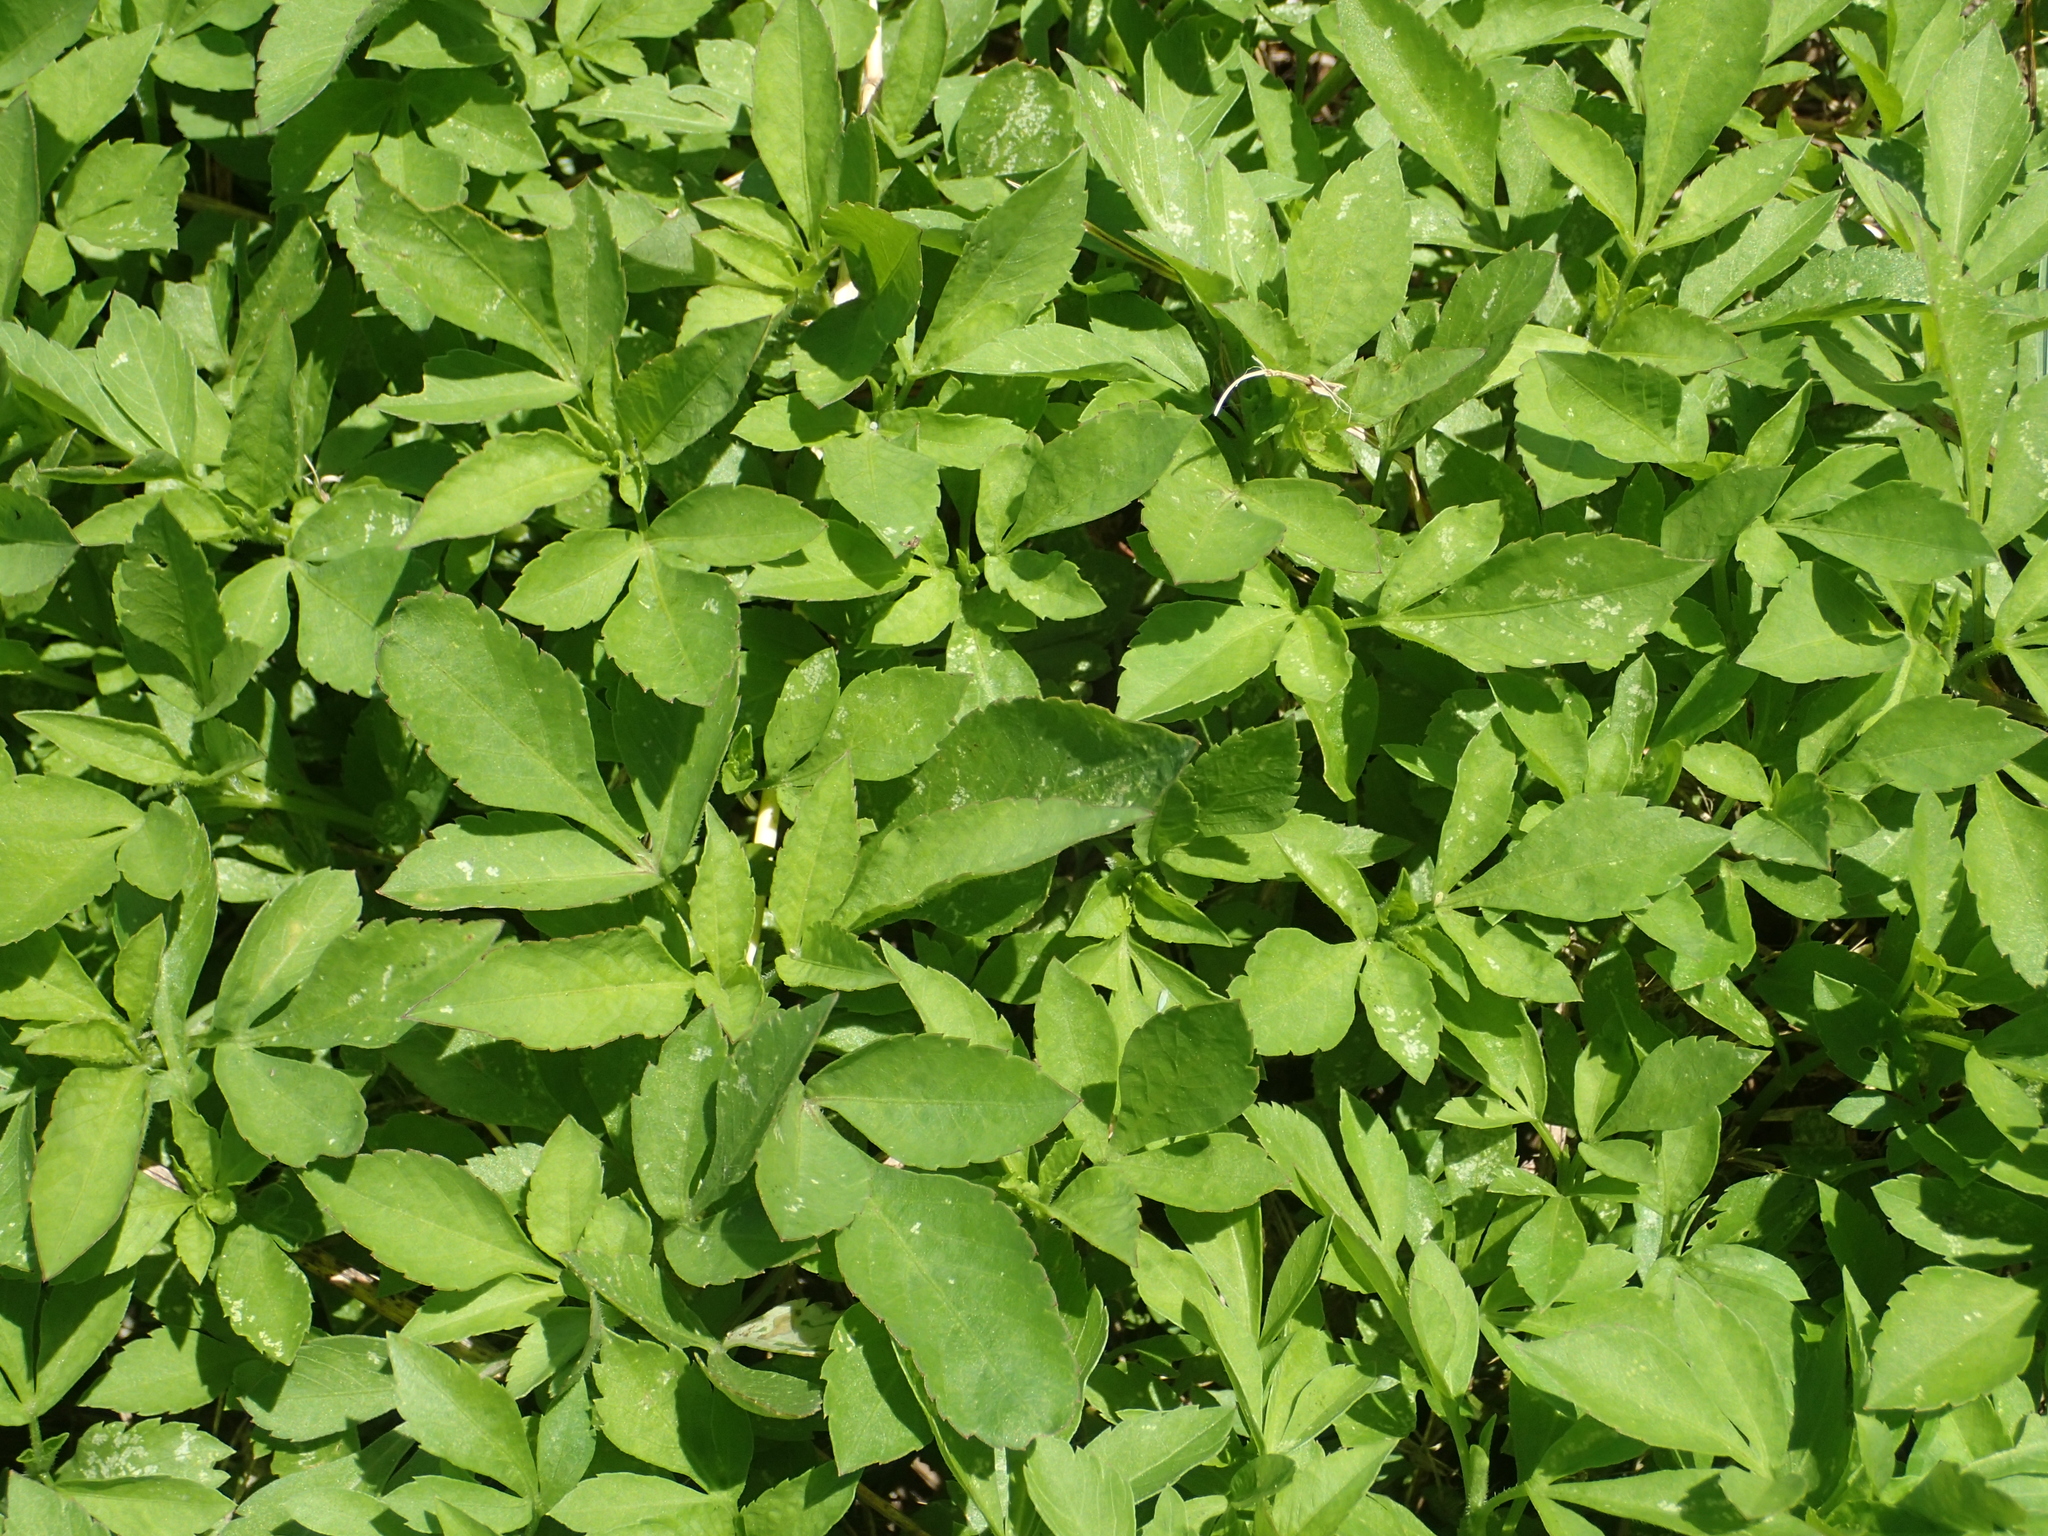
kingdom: Plantae
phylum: Tracheophyta
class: Magnoliopsida
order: Asterales
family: Asteraceae
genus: Bidens
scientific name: Bidens alba
